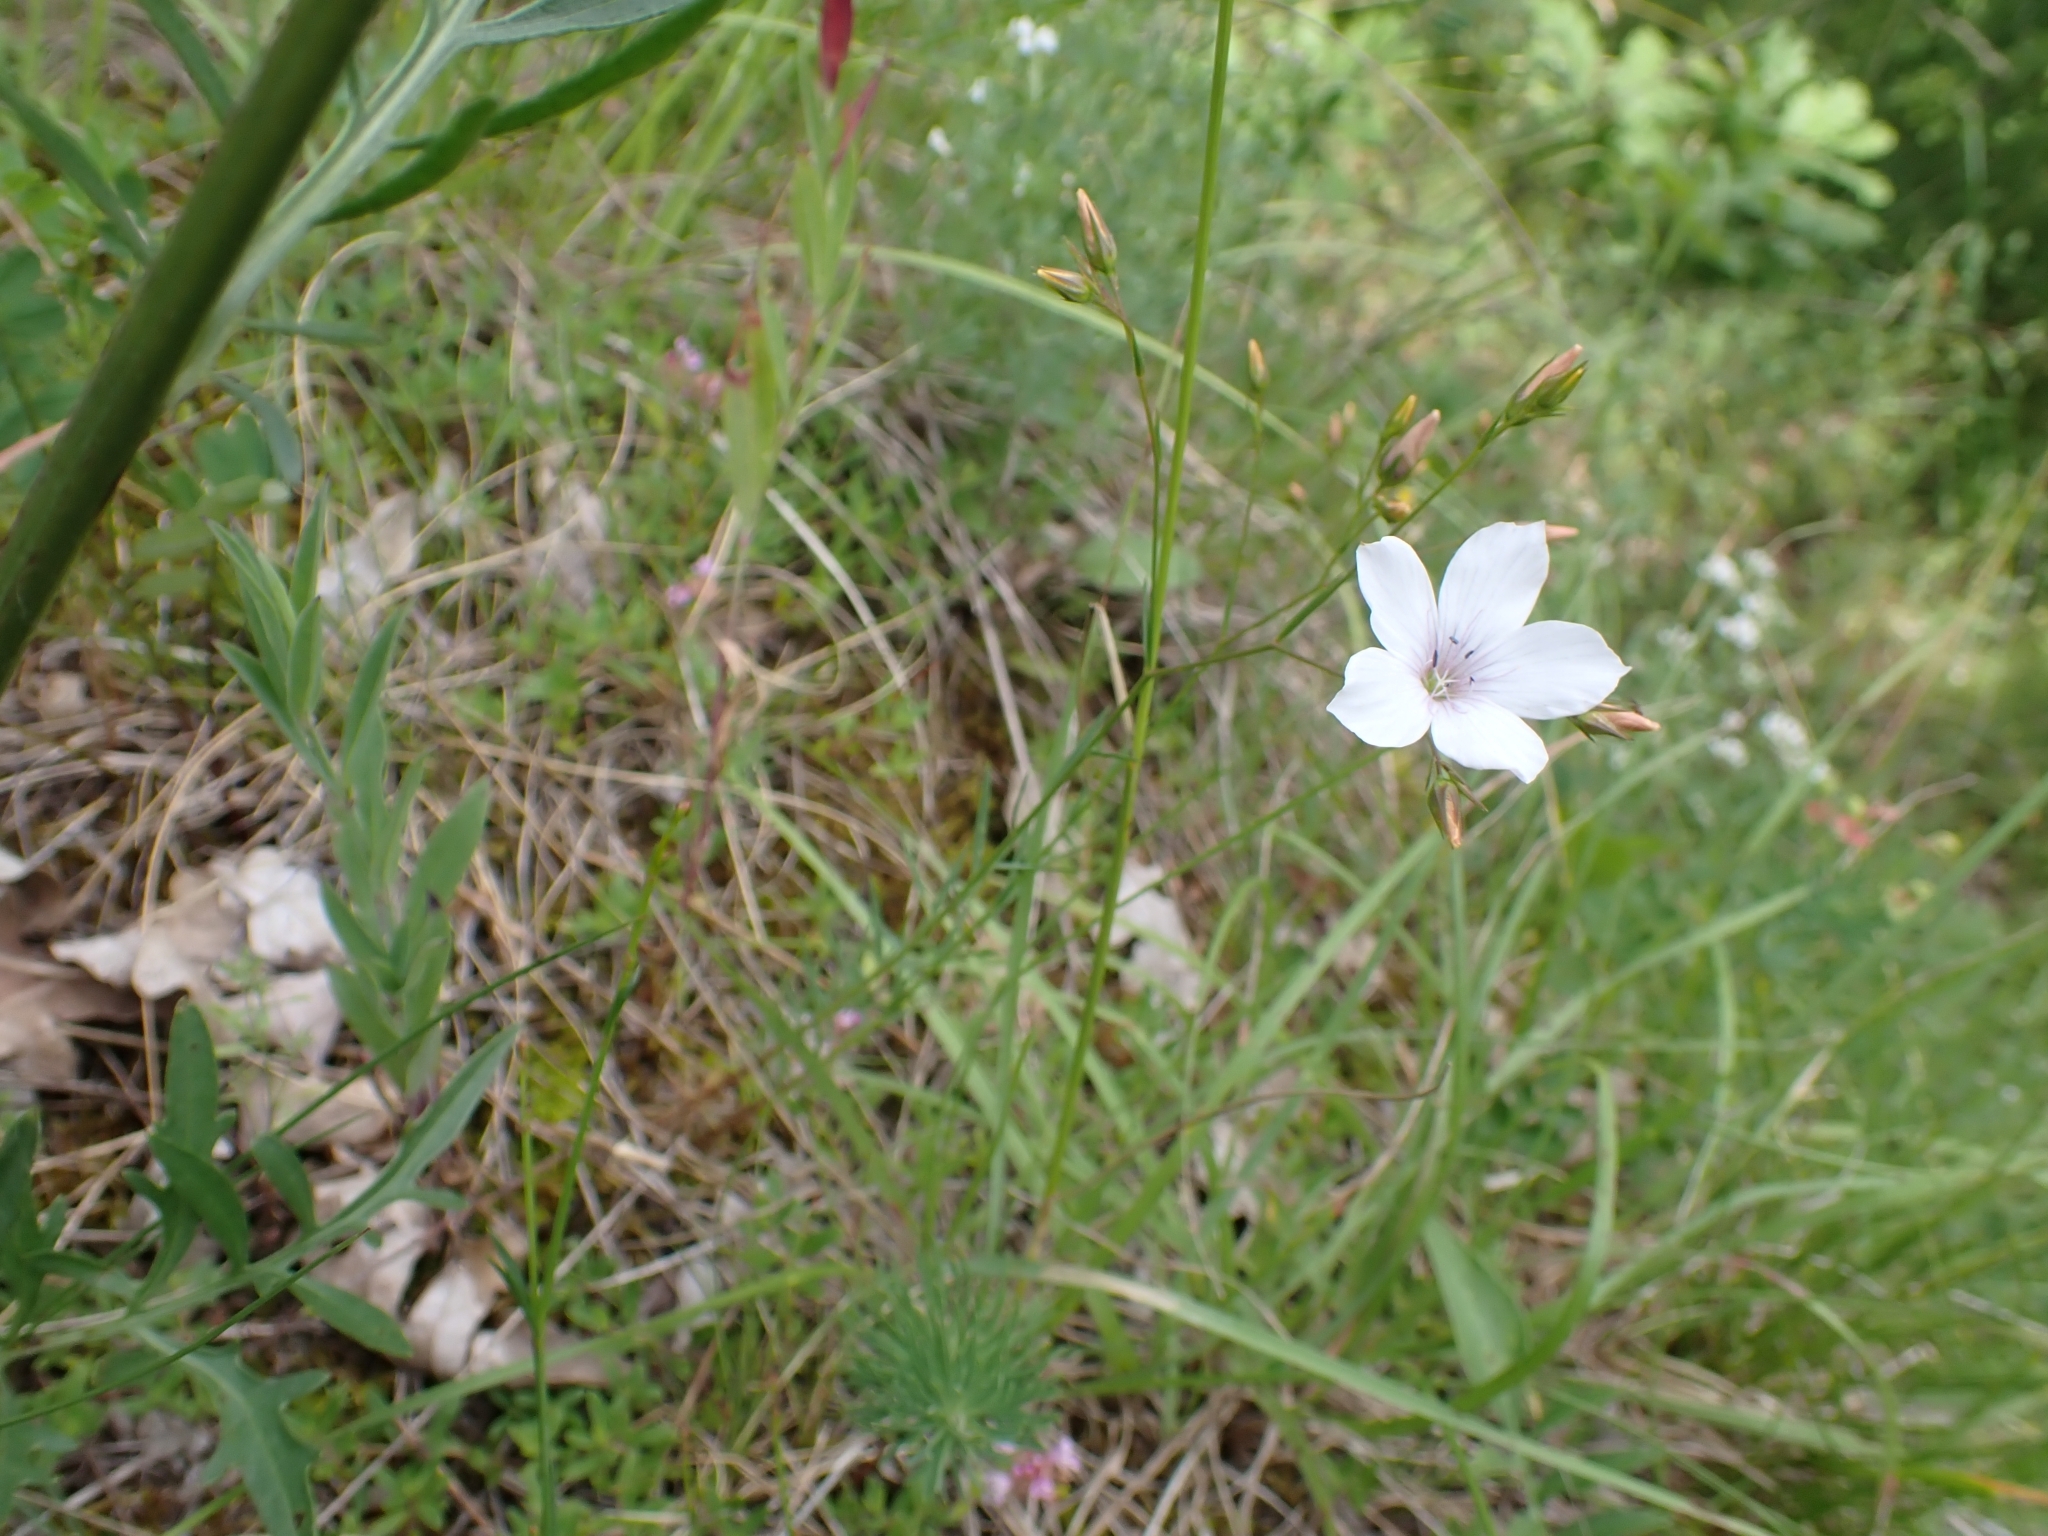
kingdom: Plantae
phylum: Tracheophyta
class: Magnoliopsida
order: Malpighiales
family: Linaceae
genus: Linum
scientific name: Linum tenuifolium
